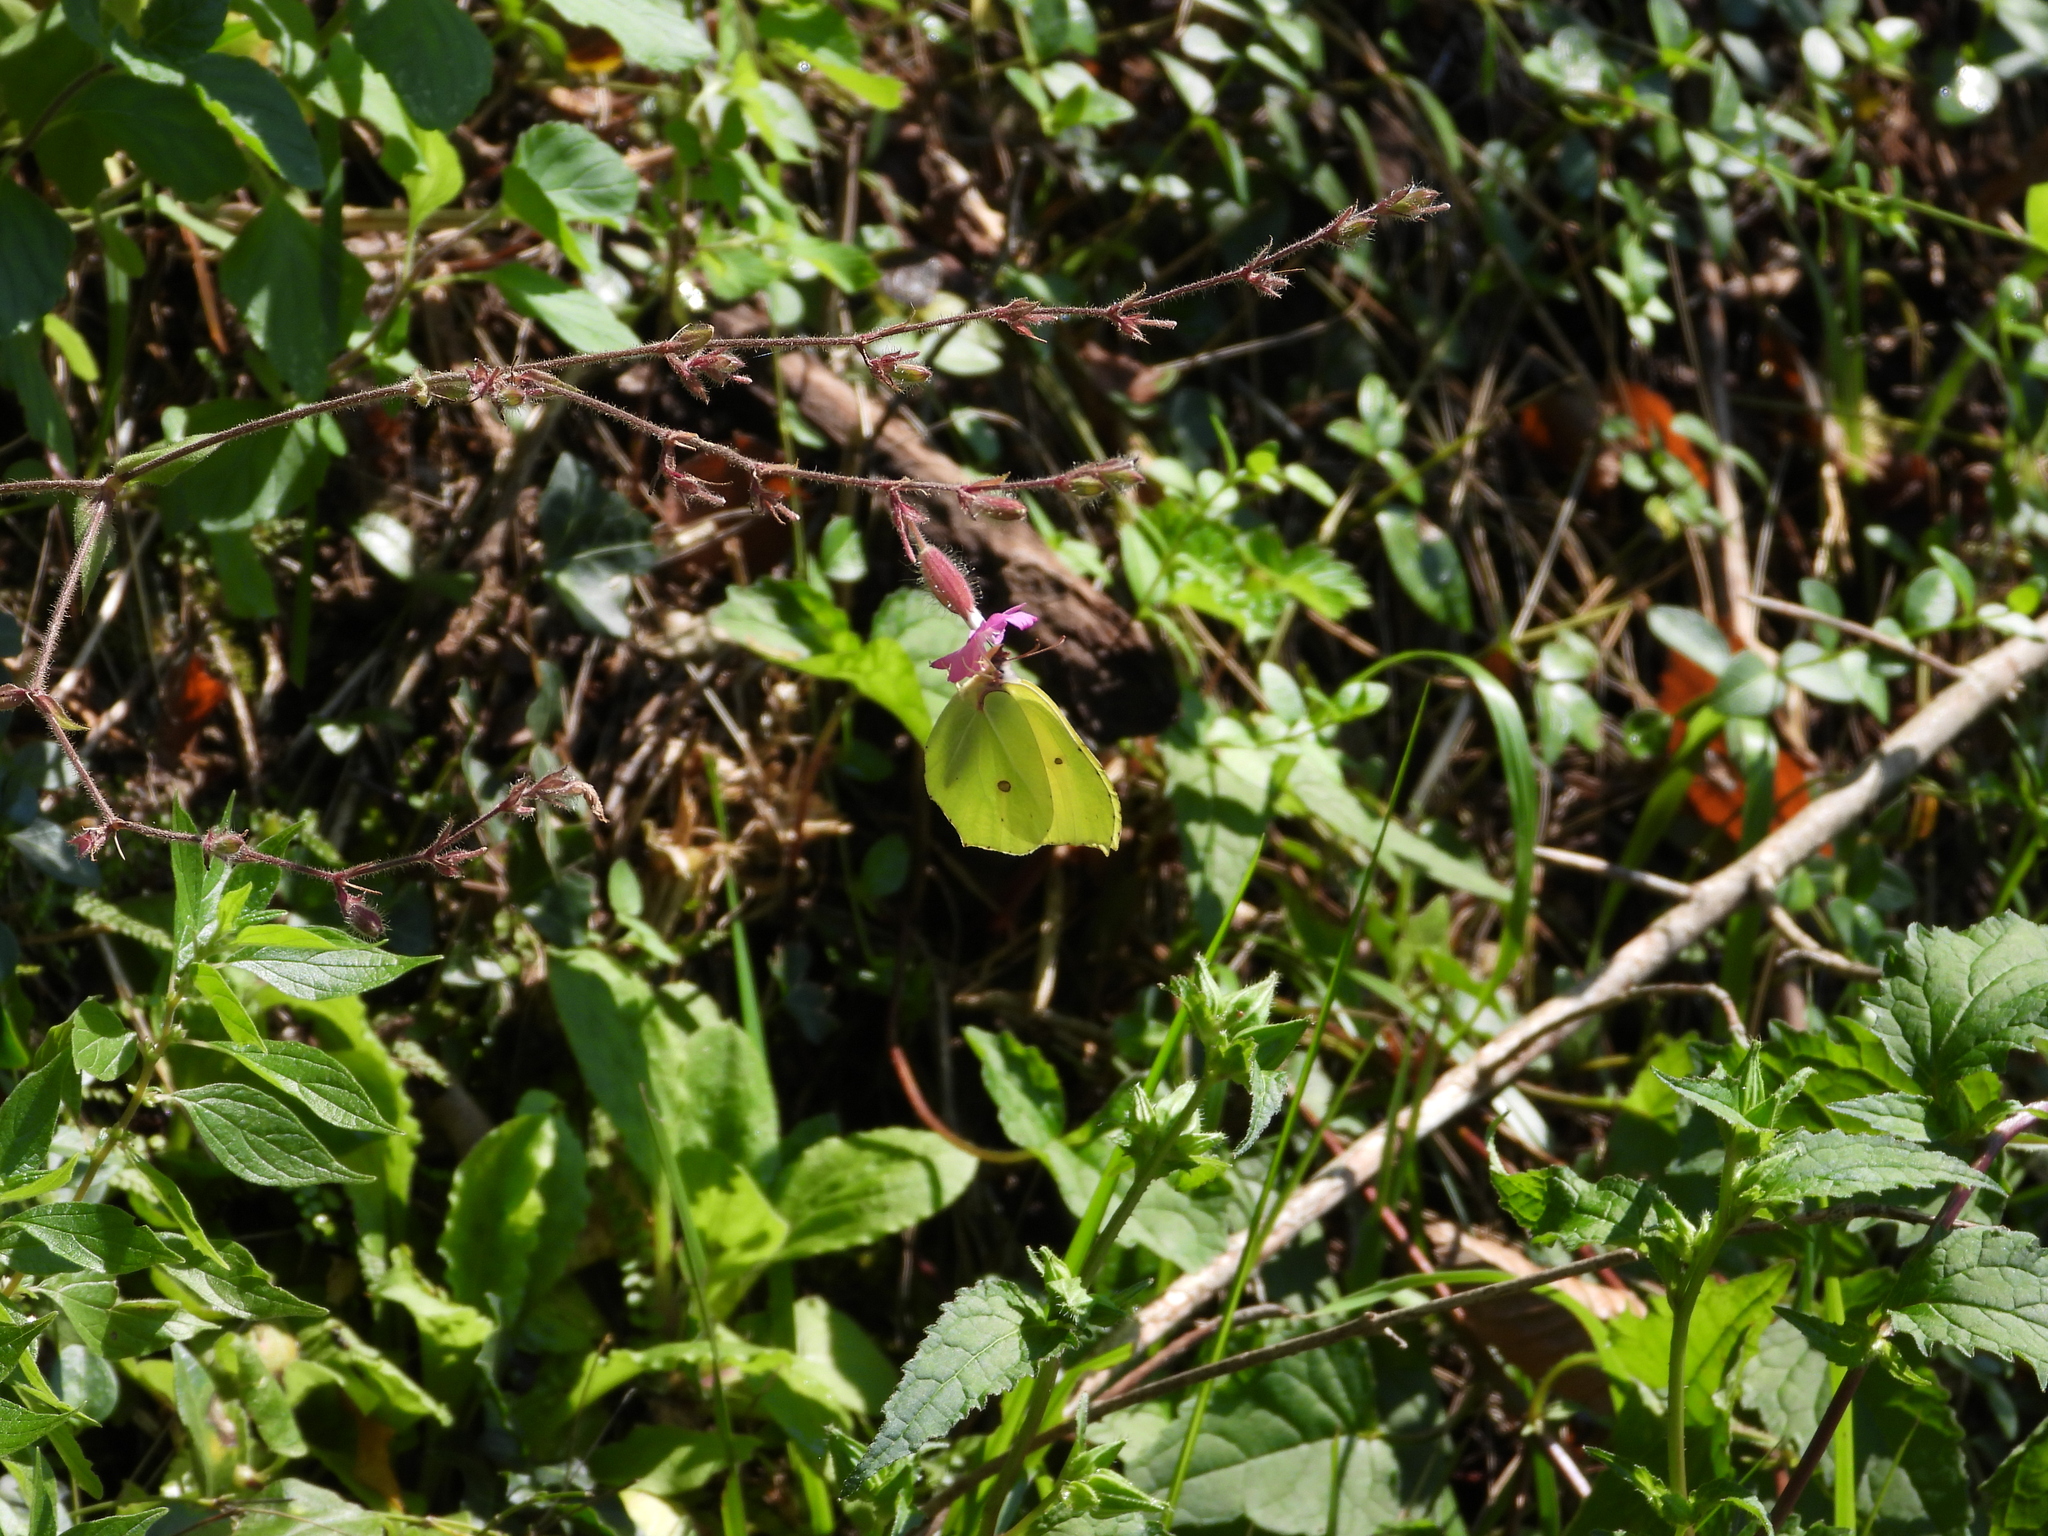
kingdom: Animalia
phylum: Arthropoda
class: Insecta
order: Lepidoptera
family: Pieridae
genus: Gonepteryx
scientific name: Gonepteryx rhamni
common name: Brimstone
